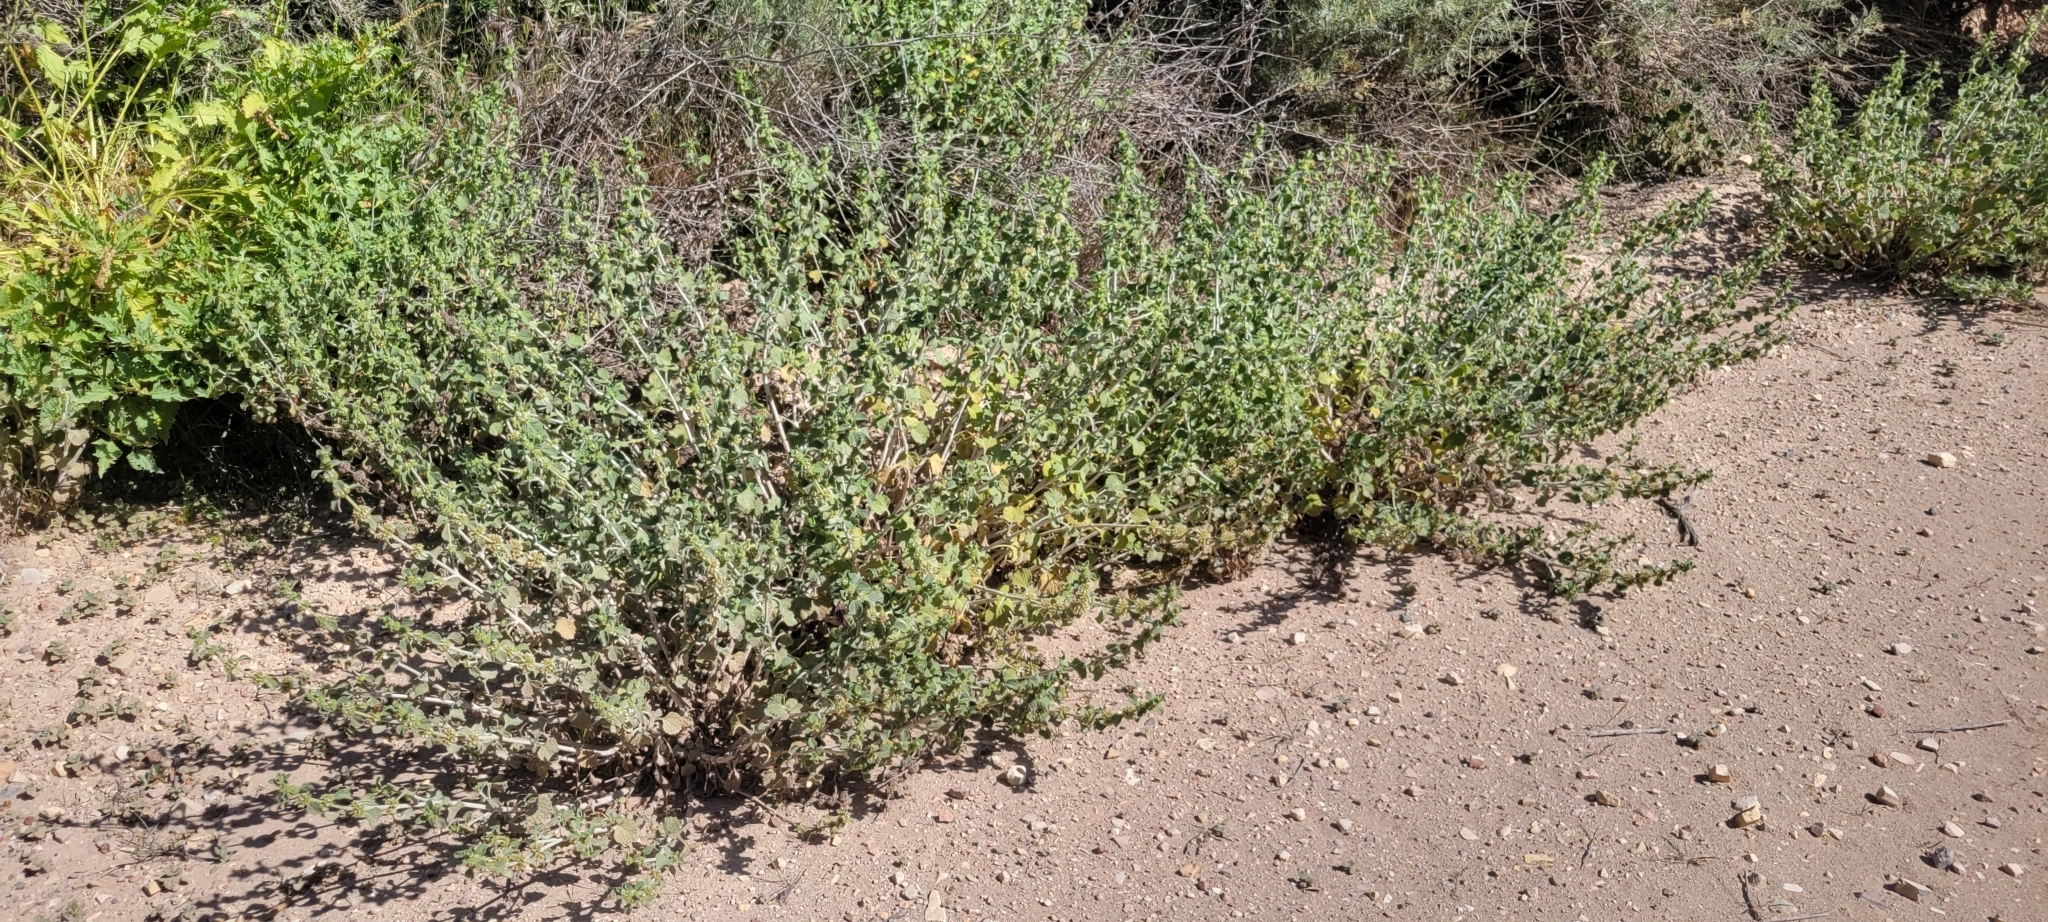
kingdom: Plantae
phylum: Tracheophyta
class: Magnoliopsida
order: Lamiales
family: Lamiaceae
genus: Marrubium
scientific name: Marrubium vulgare
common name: Horehound
